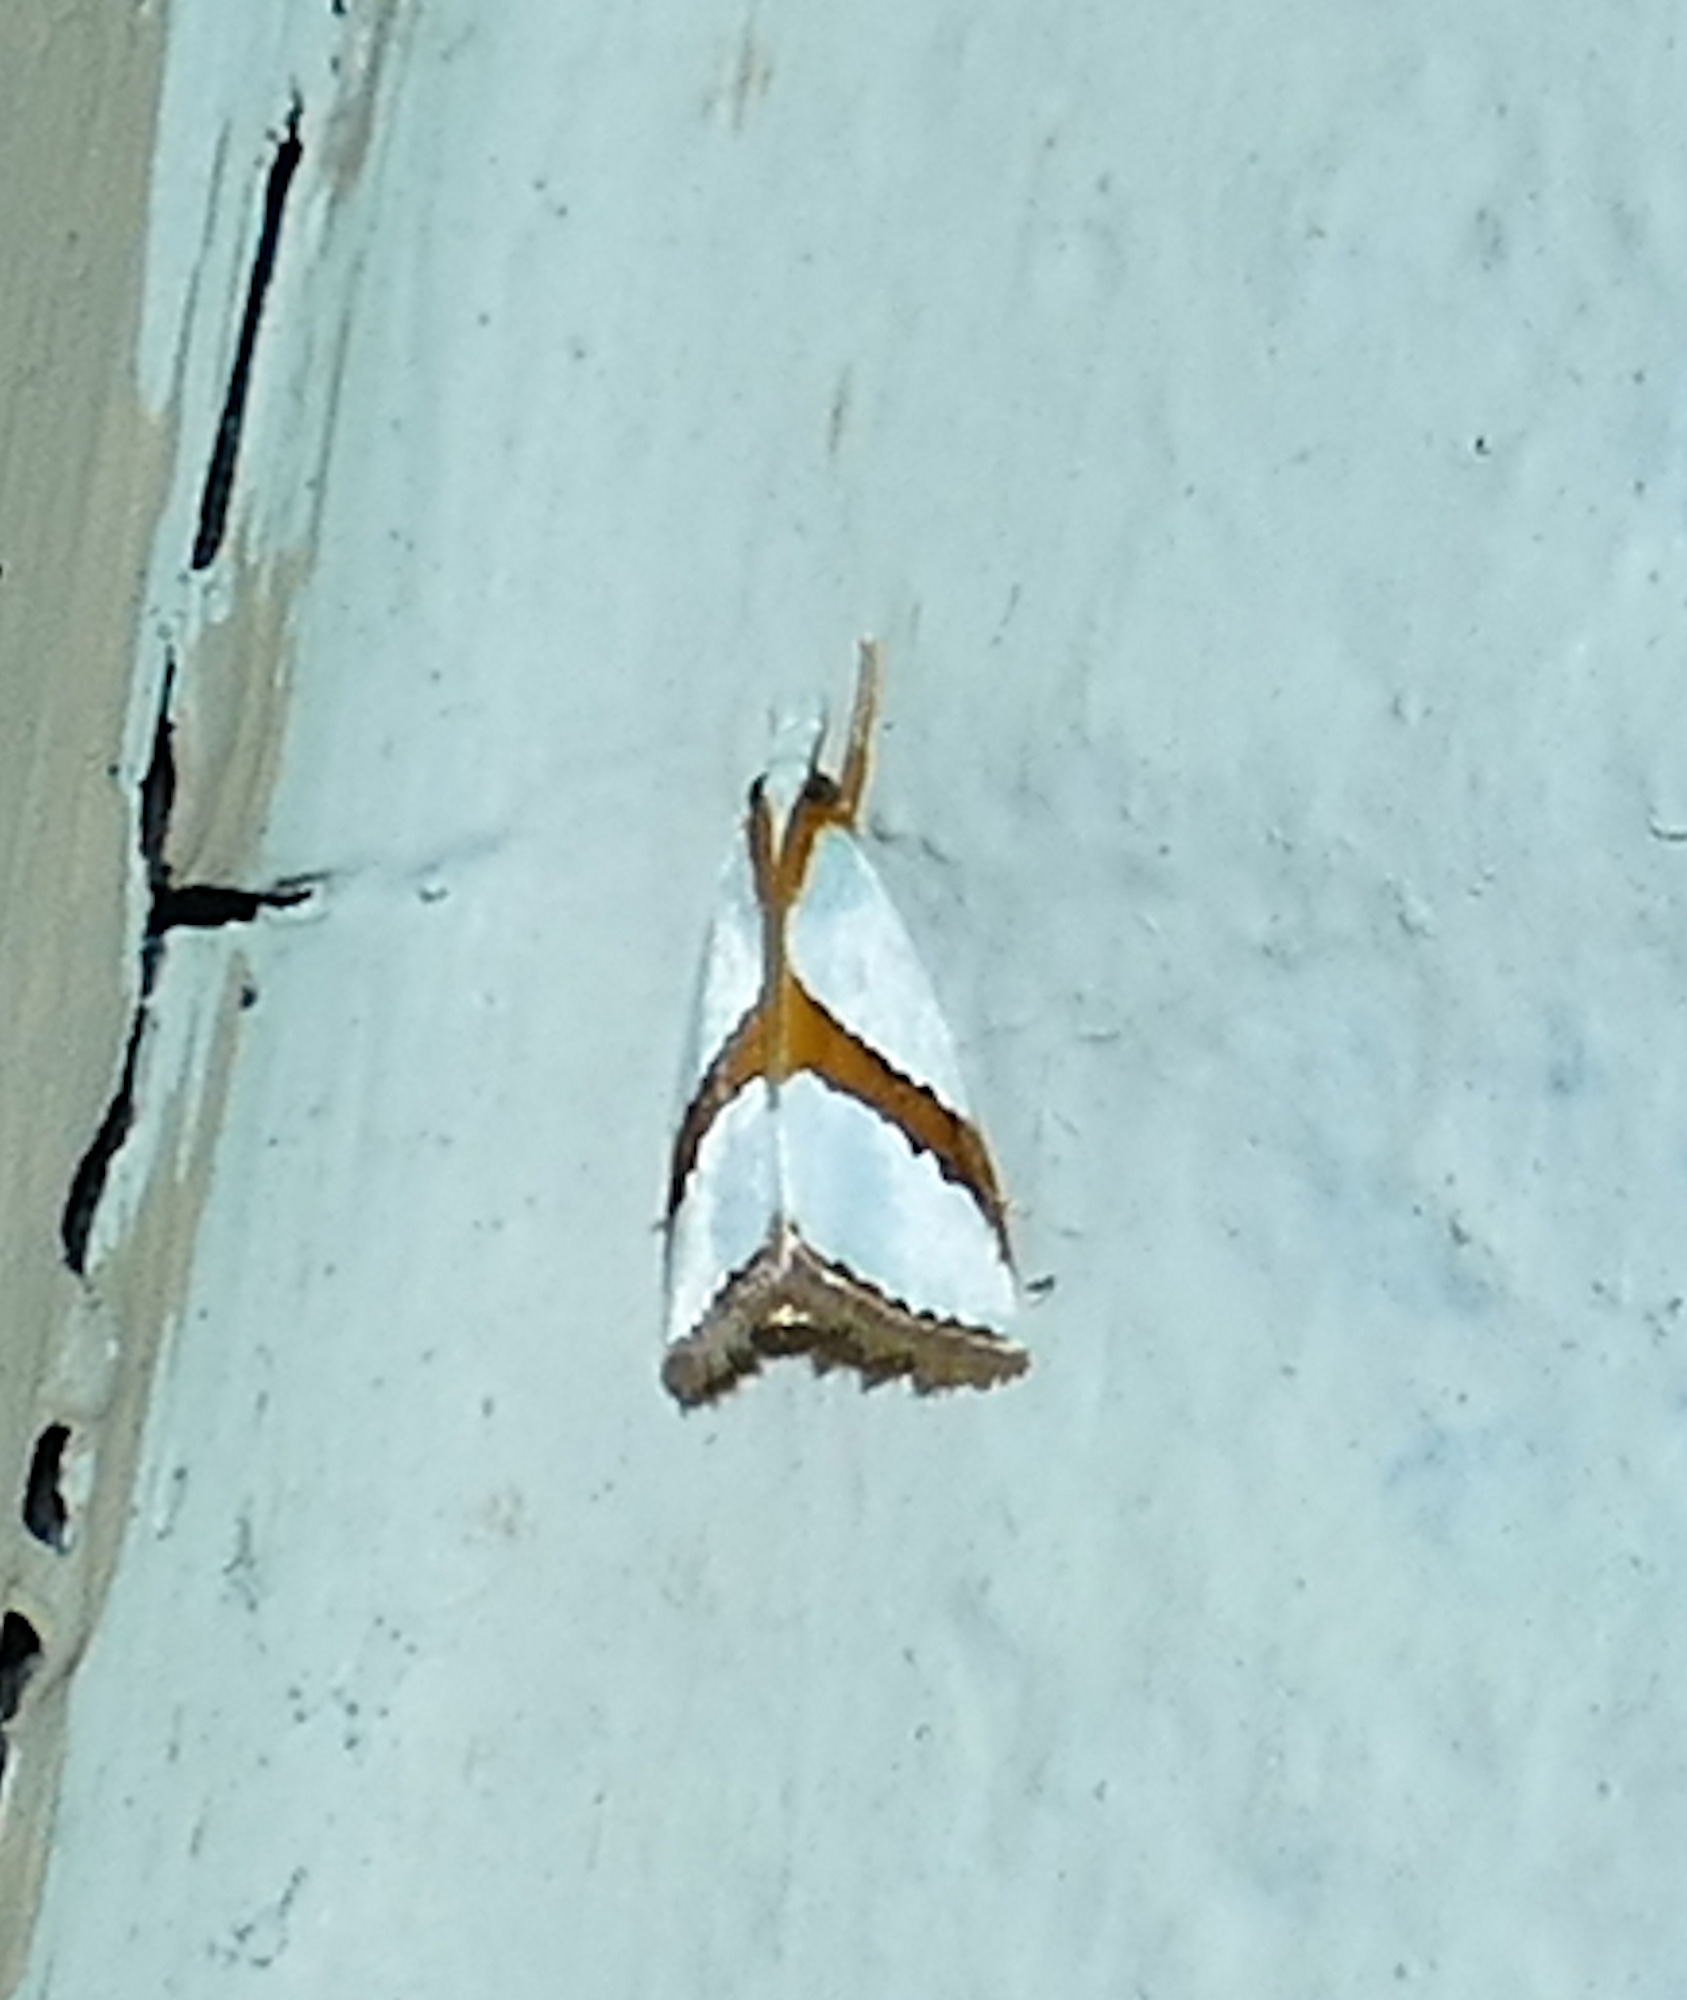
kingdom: Animalia
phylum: Arthropoda
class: Insecta
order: Lepidoptera
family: Crambidae
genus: Vaxi
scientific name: Vaxi critica
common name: Straight-lined vaxi moth
